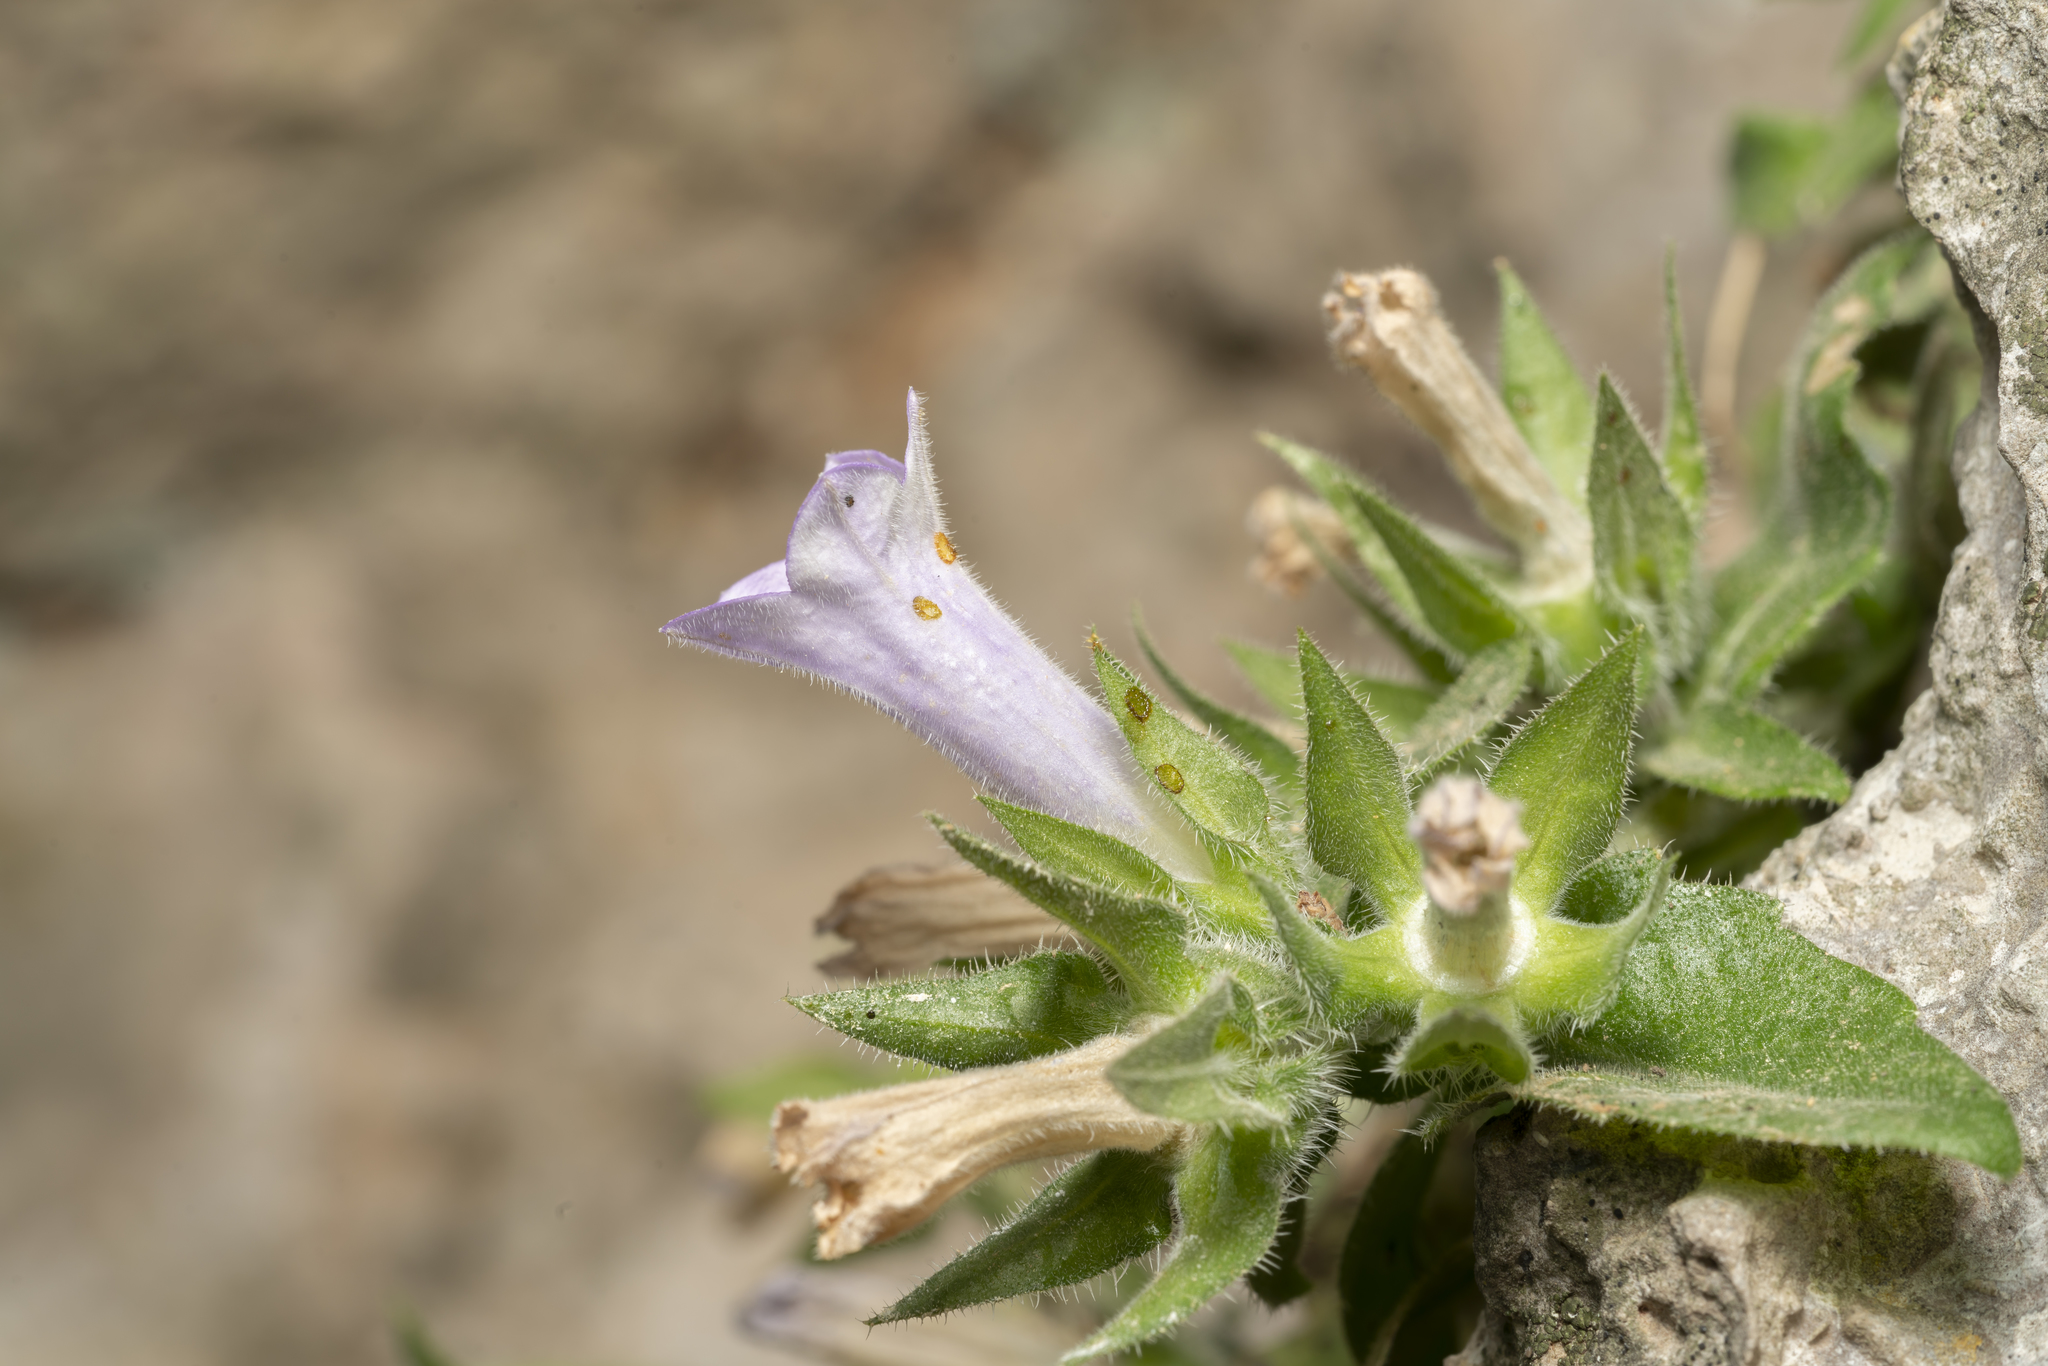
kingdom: Plantae
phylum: Tracheophyta
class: Magnoliopsida
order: Asterales
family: Campanulaceae
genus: Campanula
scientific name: Campanula hagielia
